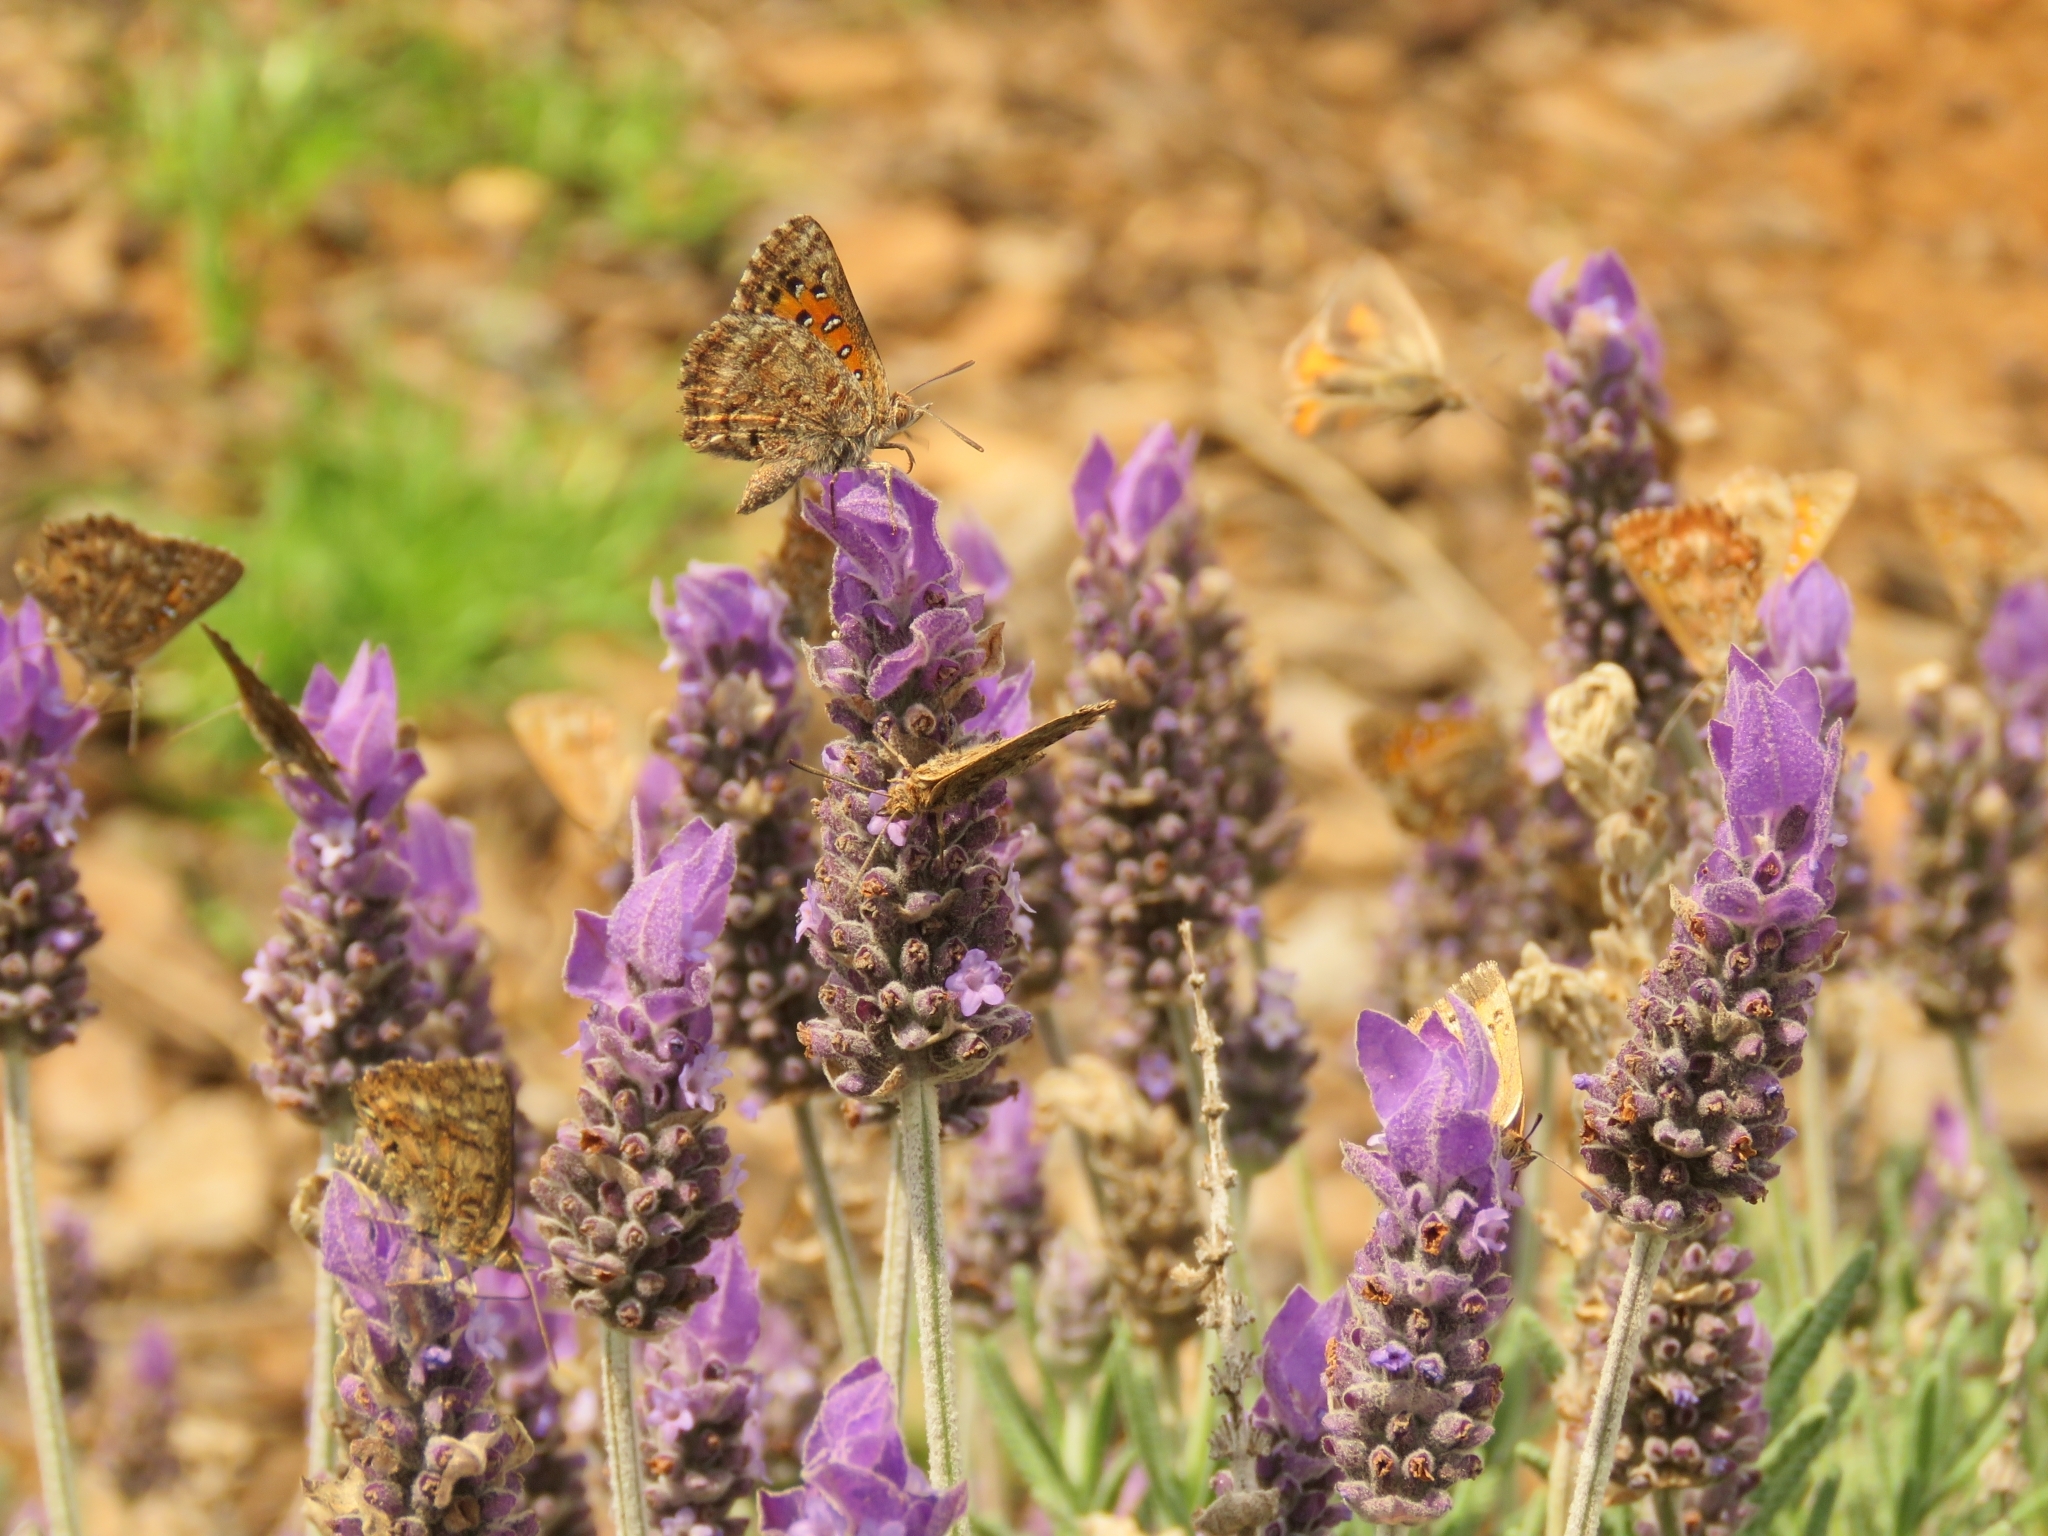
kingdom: Animalia
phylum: Arthropoda
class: Insecta
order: Lepidoptera
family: Lycaenidae
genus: Aloeides
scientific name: Aloeides pierus
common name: Dull copper
